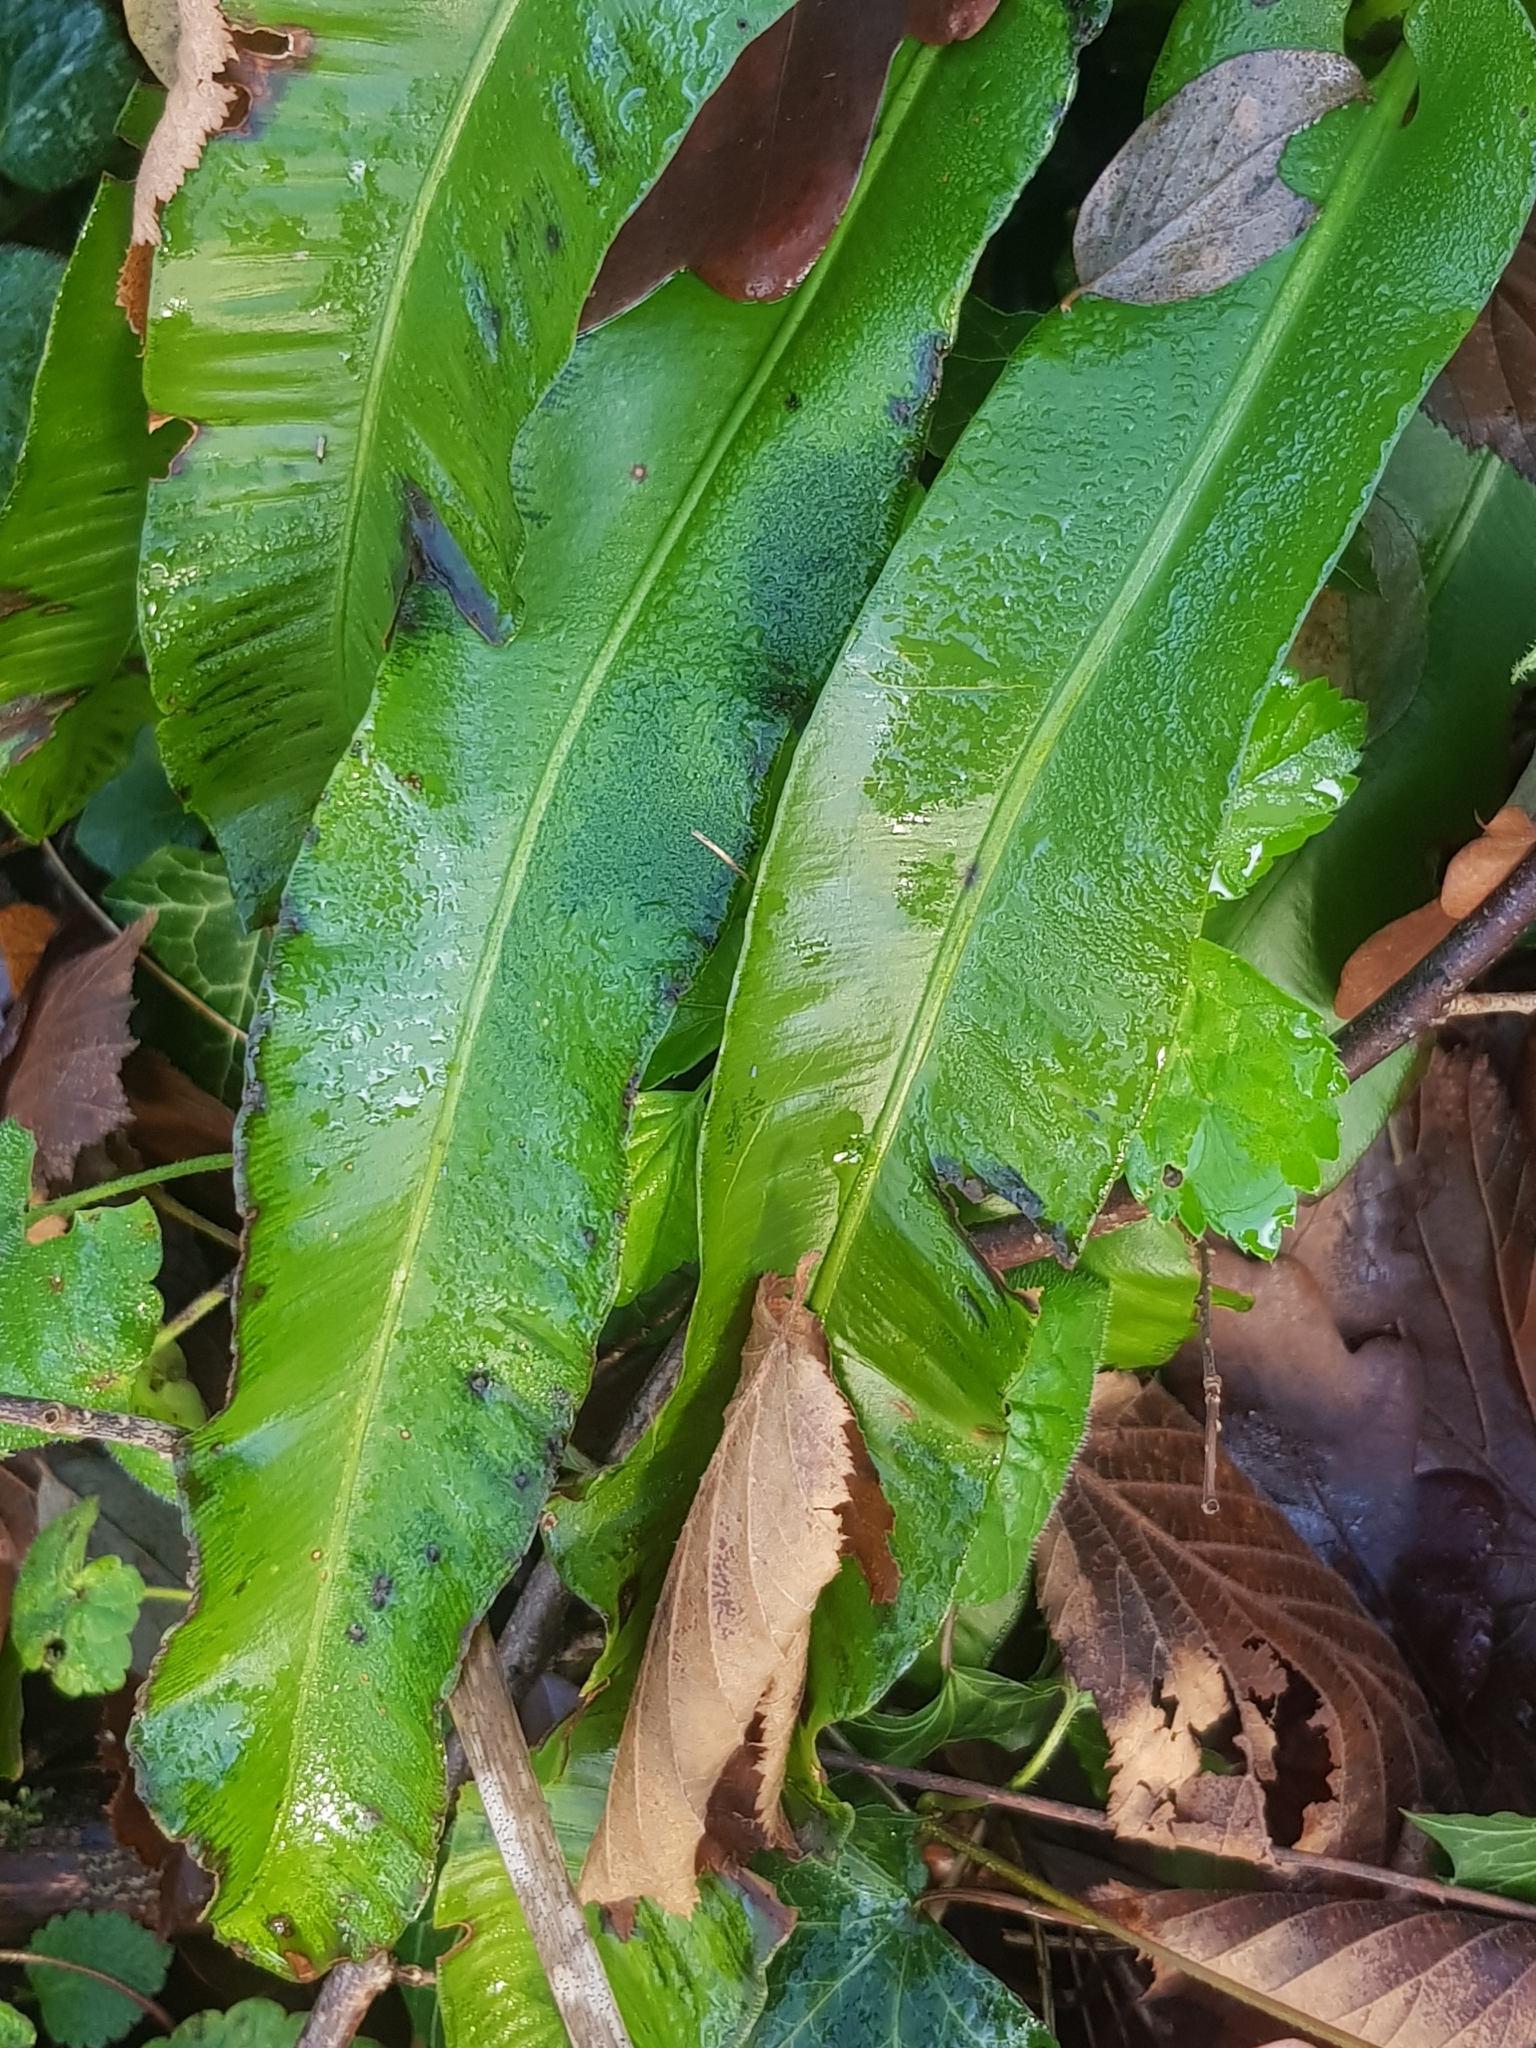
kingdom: Plantae
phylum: Tracheophyta
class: Polypodiopsida
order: Polypodiales
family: Aspleniaceae
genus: Asplenium
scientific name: Asplenium scolopendrium
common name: Hart's-tongue fern
